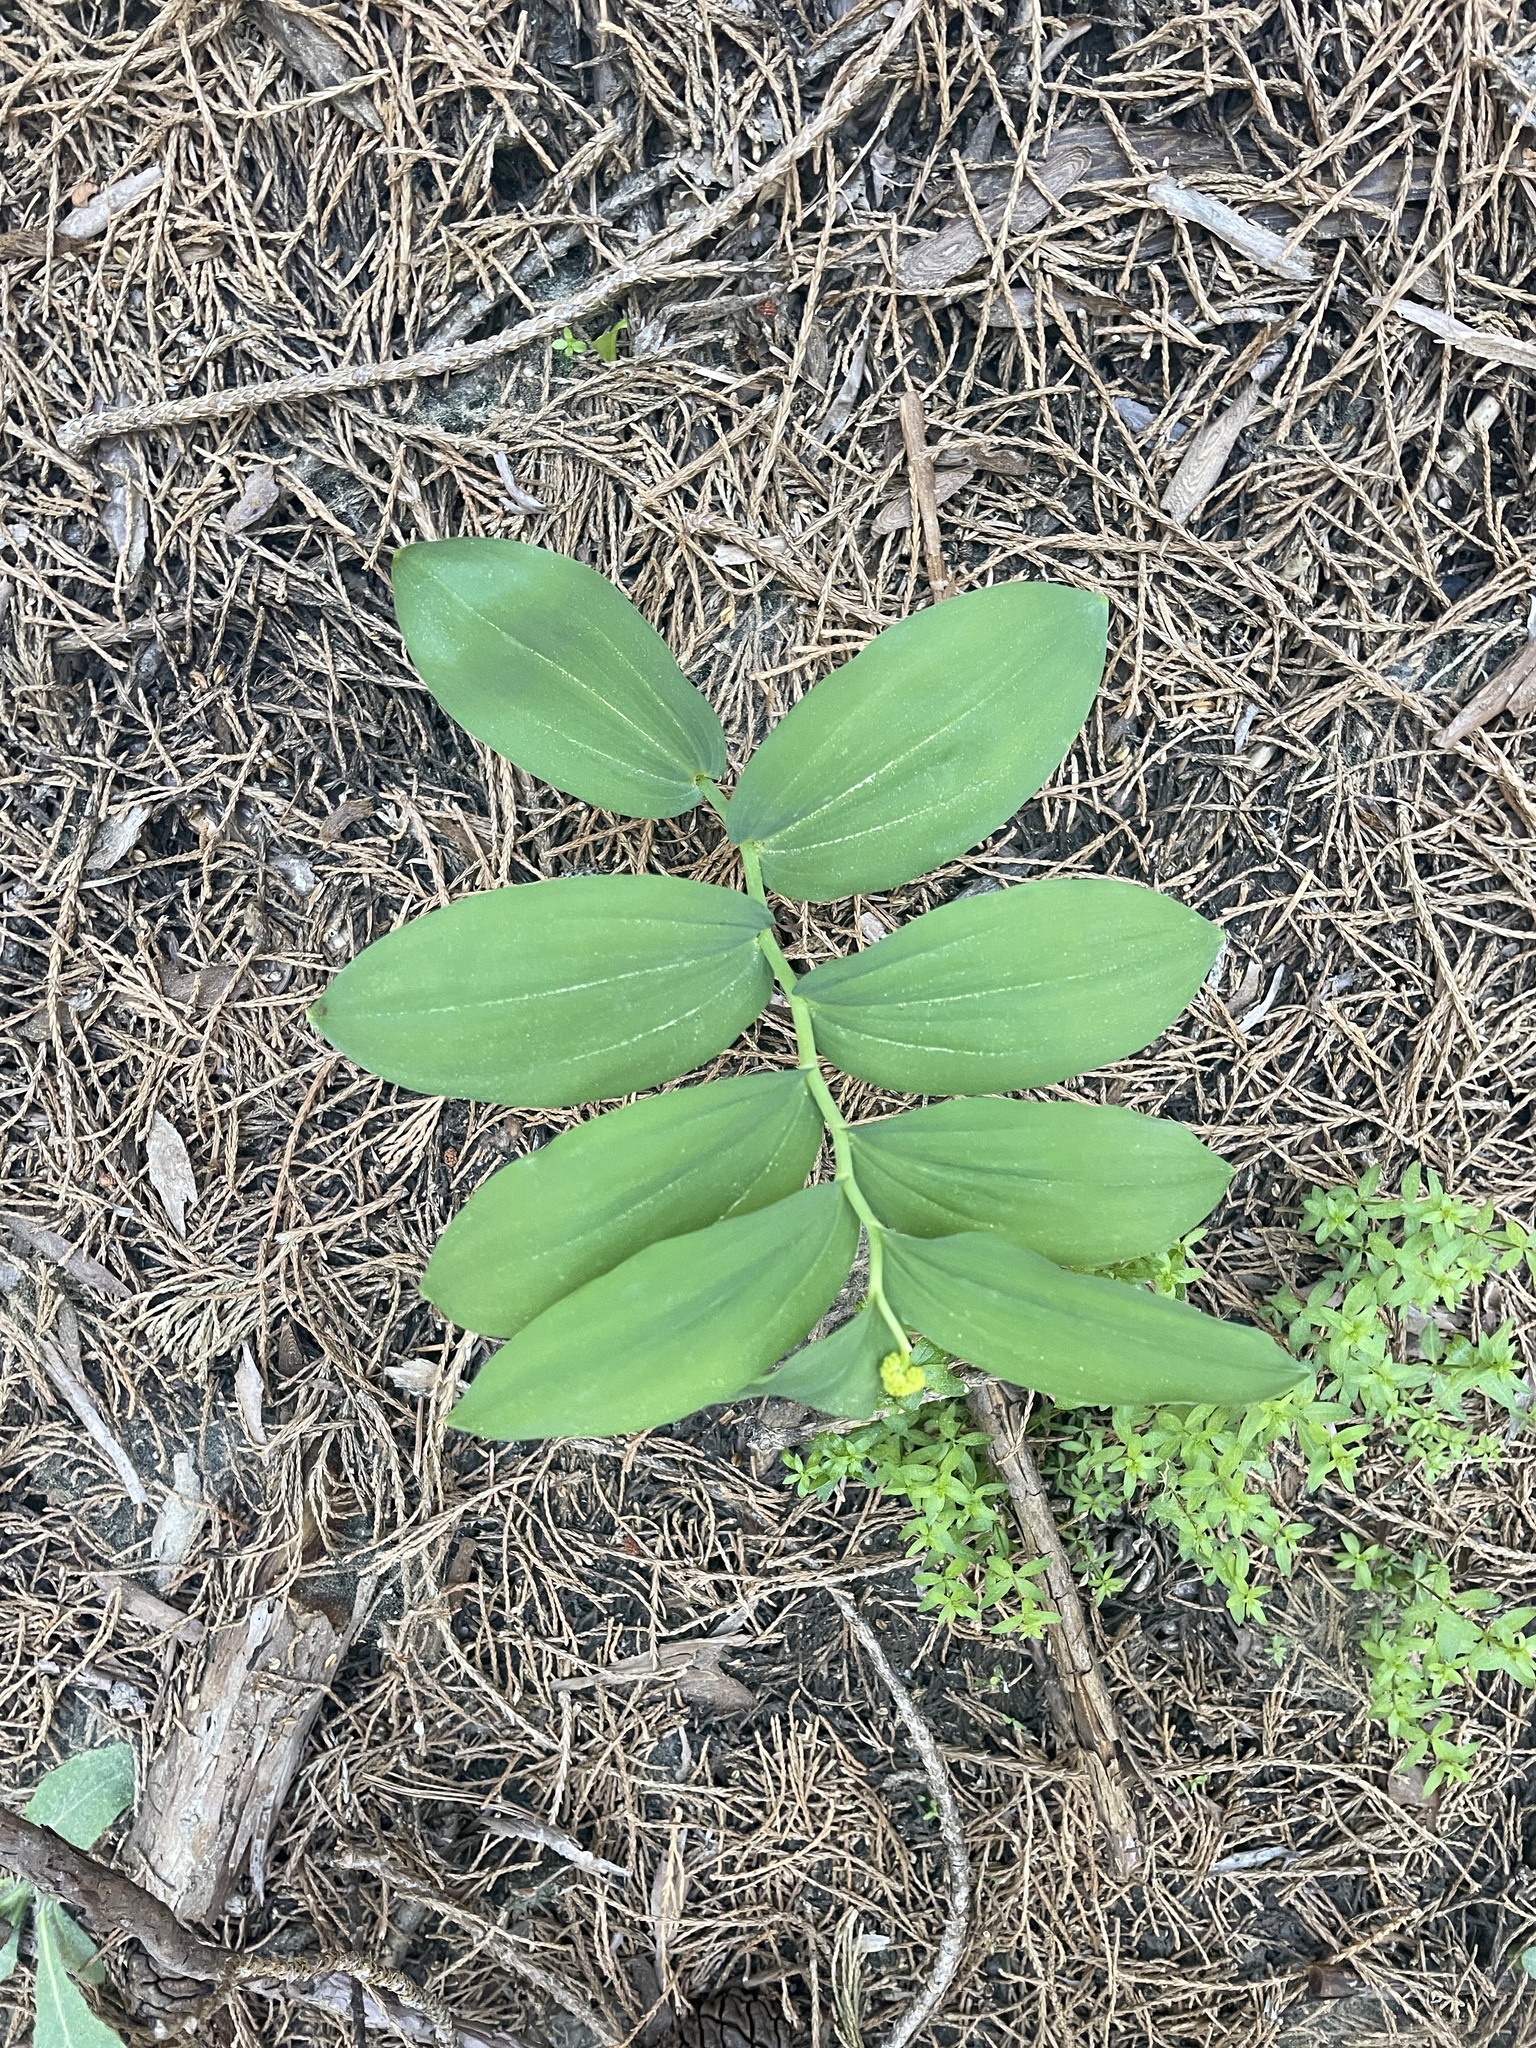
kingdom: Plantae
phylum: Tracheophyta
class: Liliopsida
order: Asparagales
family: Asparagaceae
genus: Maianthemum
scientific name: Maianthemum racemosum
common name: False spikenard
